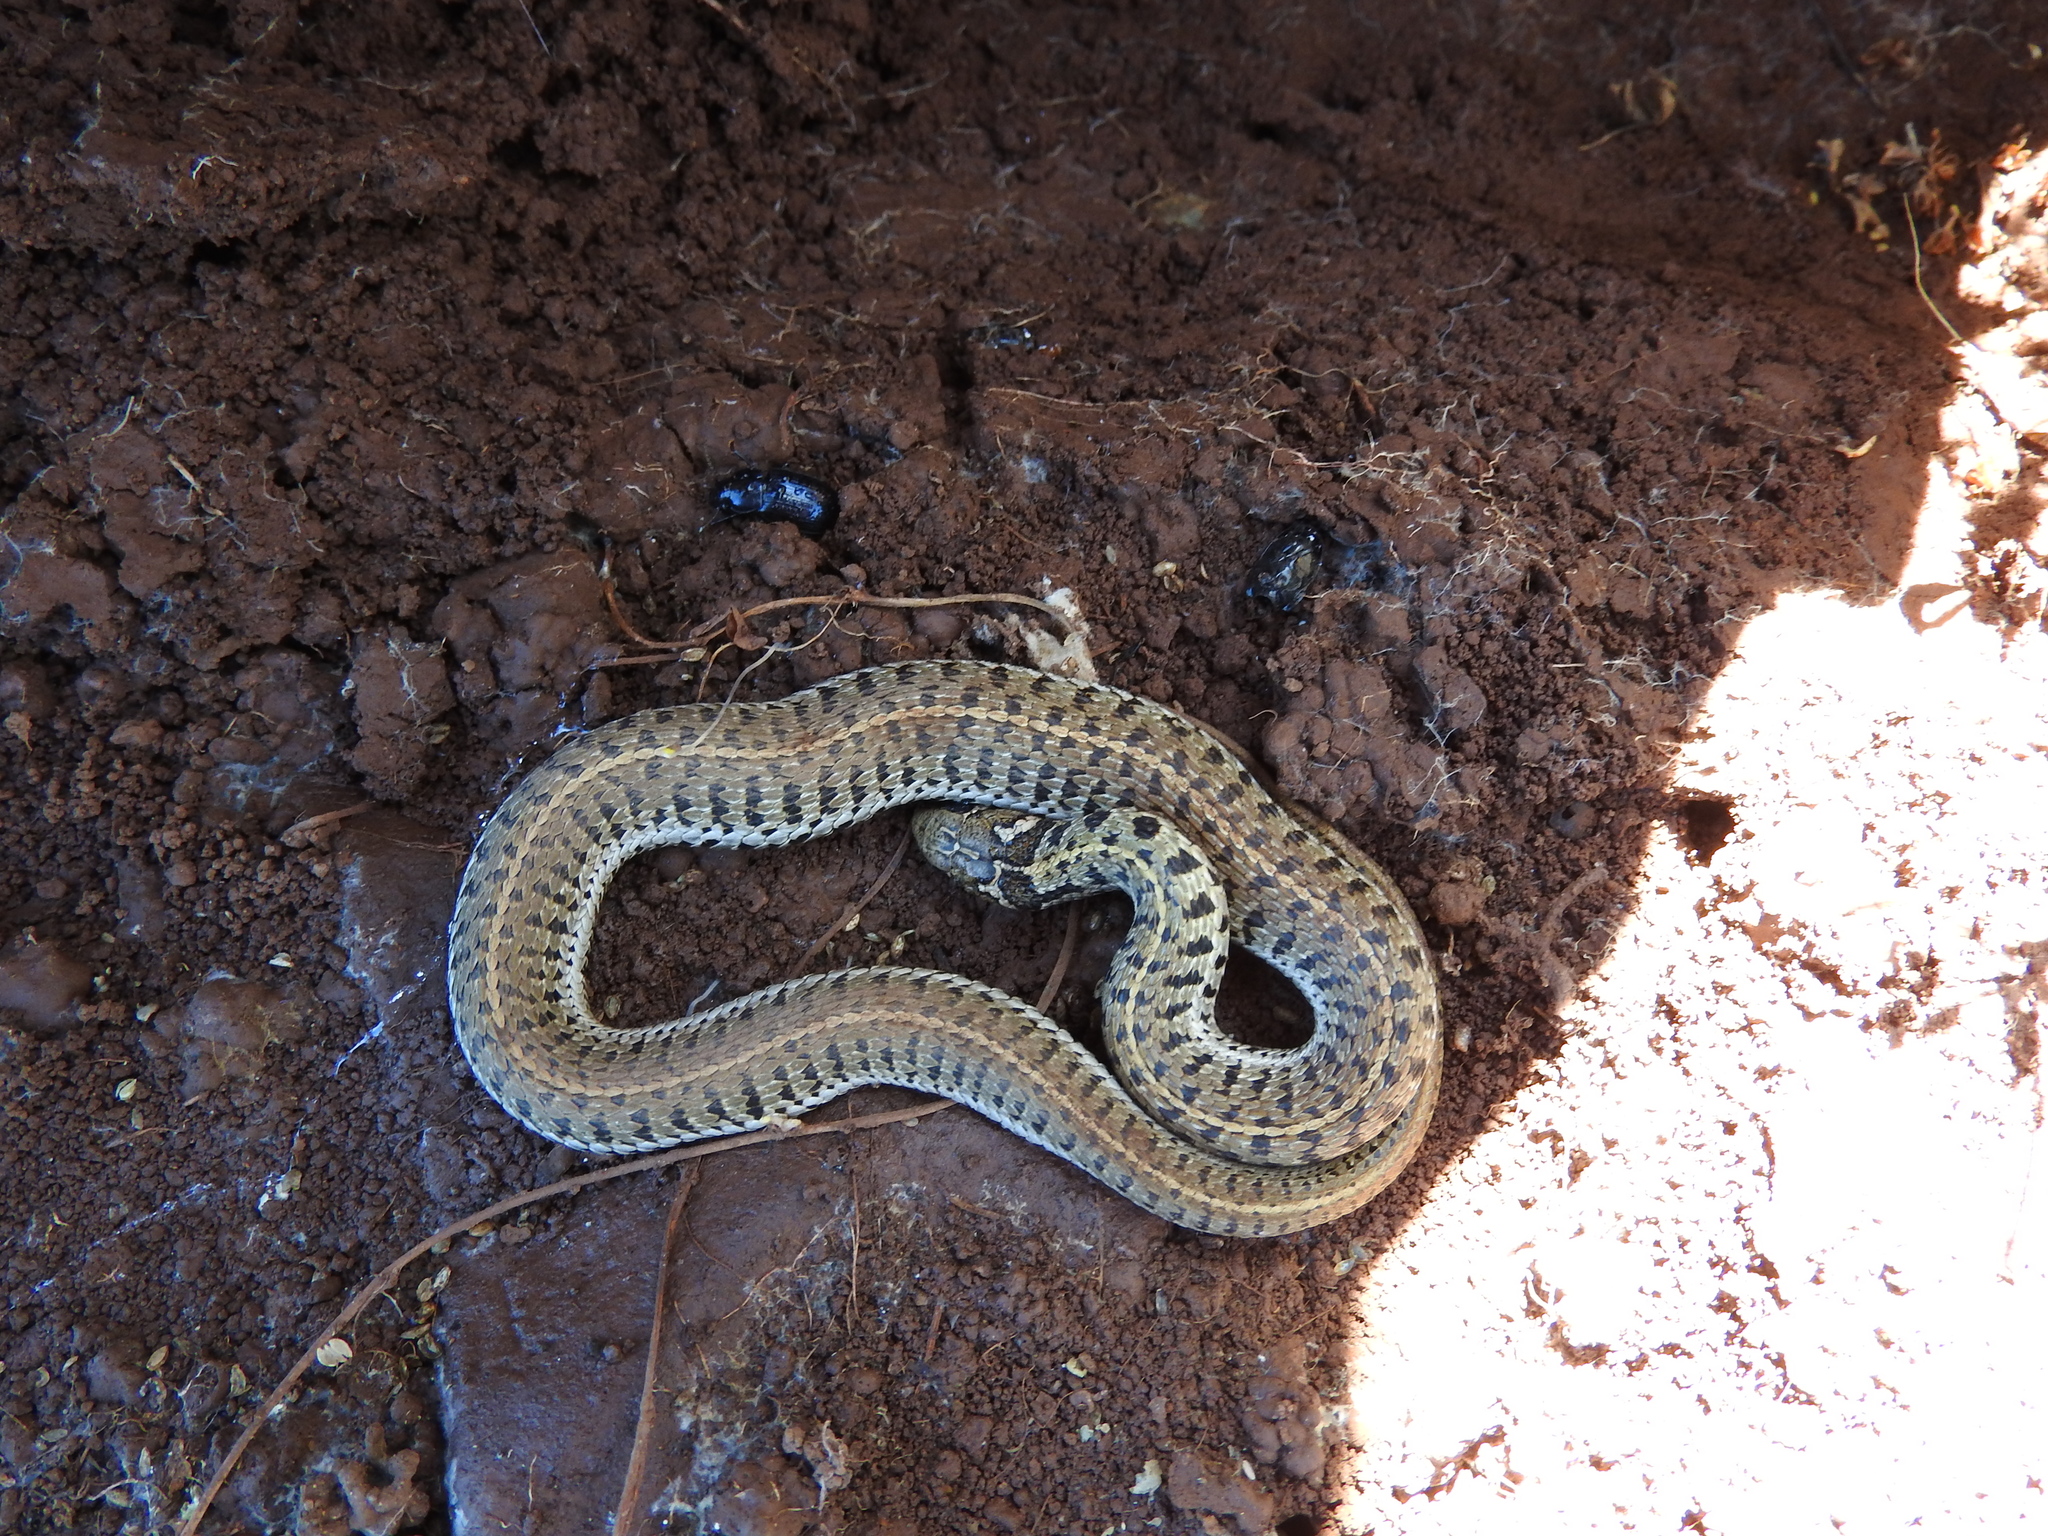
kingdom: Animalia
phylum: Chordata
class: Squamata
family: Colubridae
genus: Thamnophis
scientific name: Thamnophis scaliger
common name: Short-tail alpine garter snake
